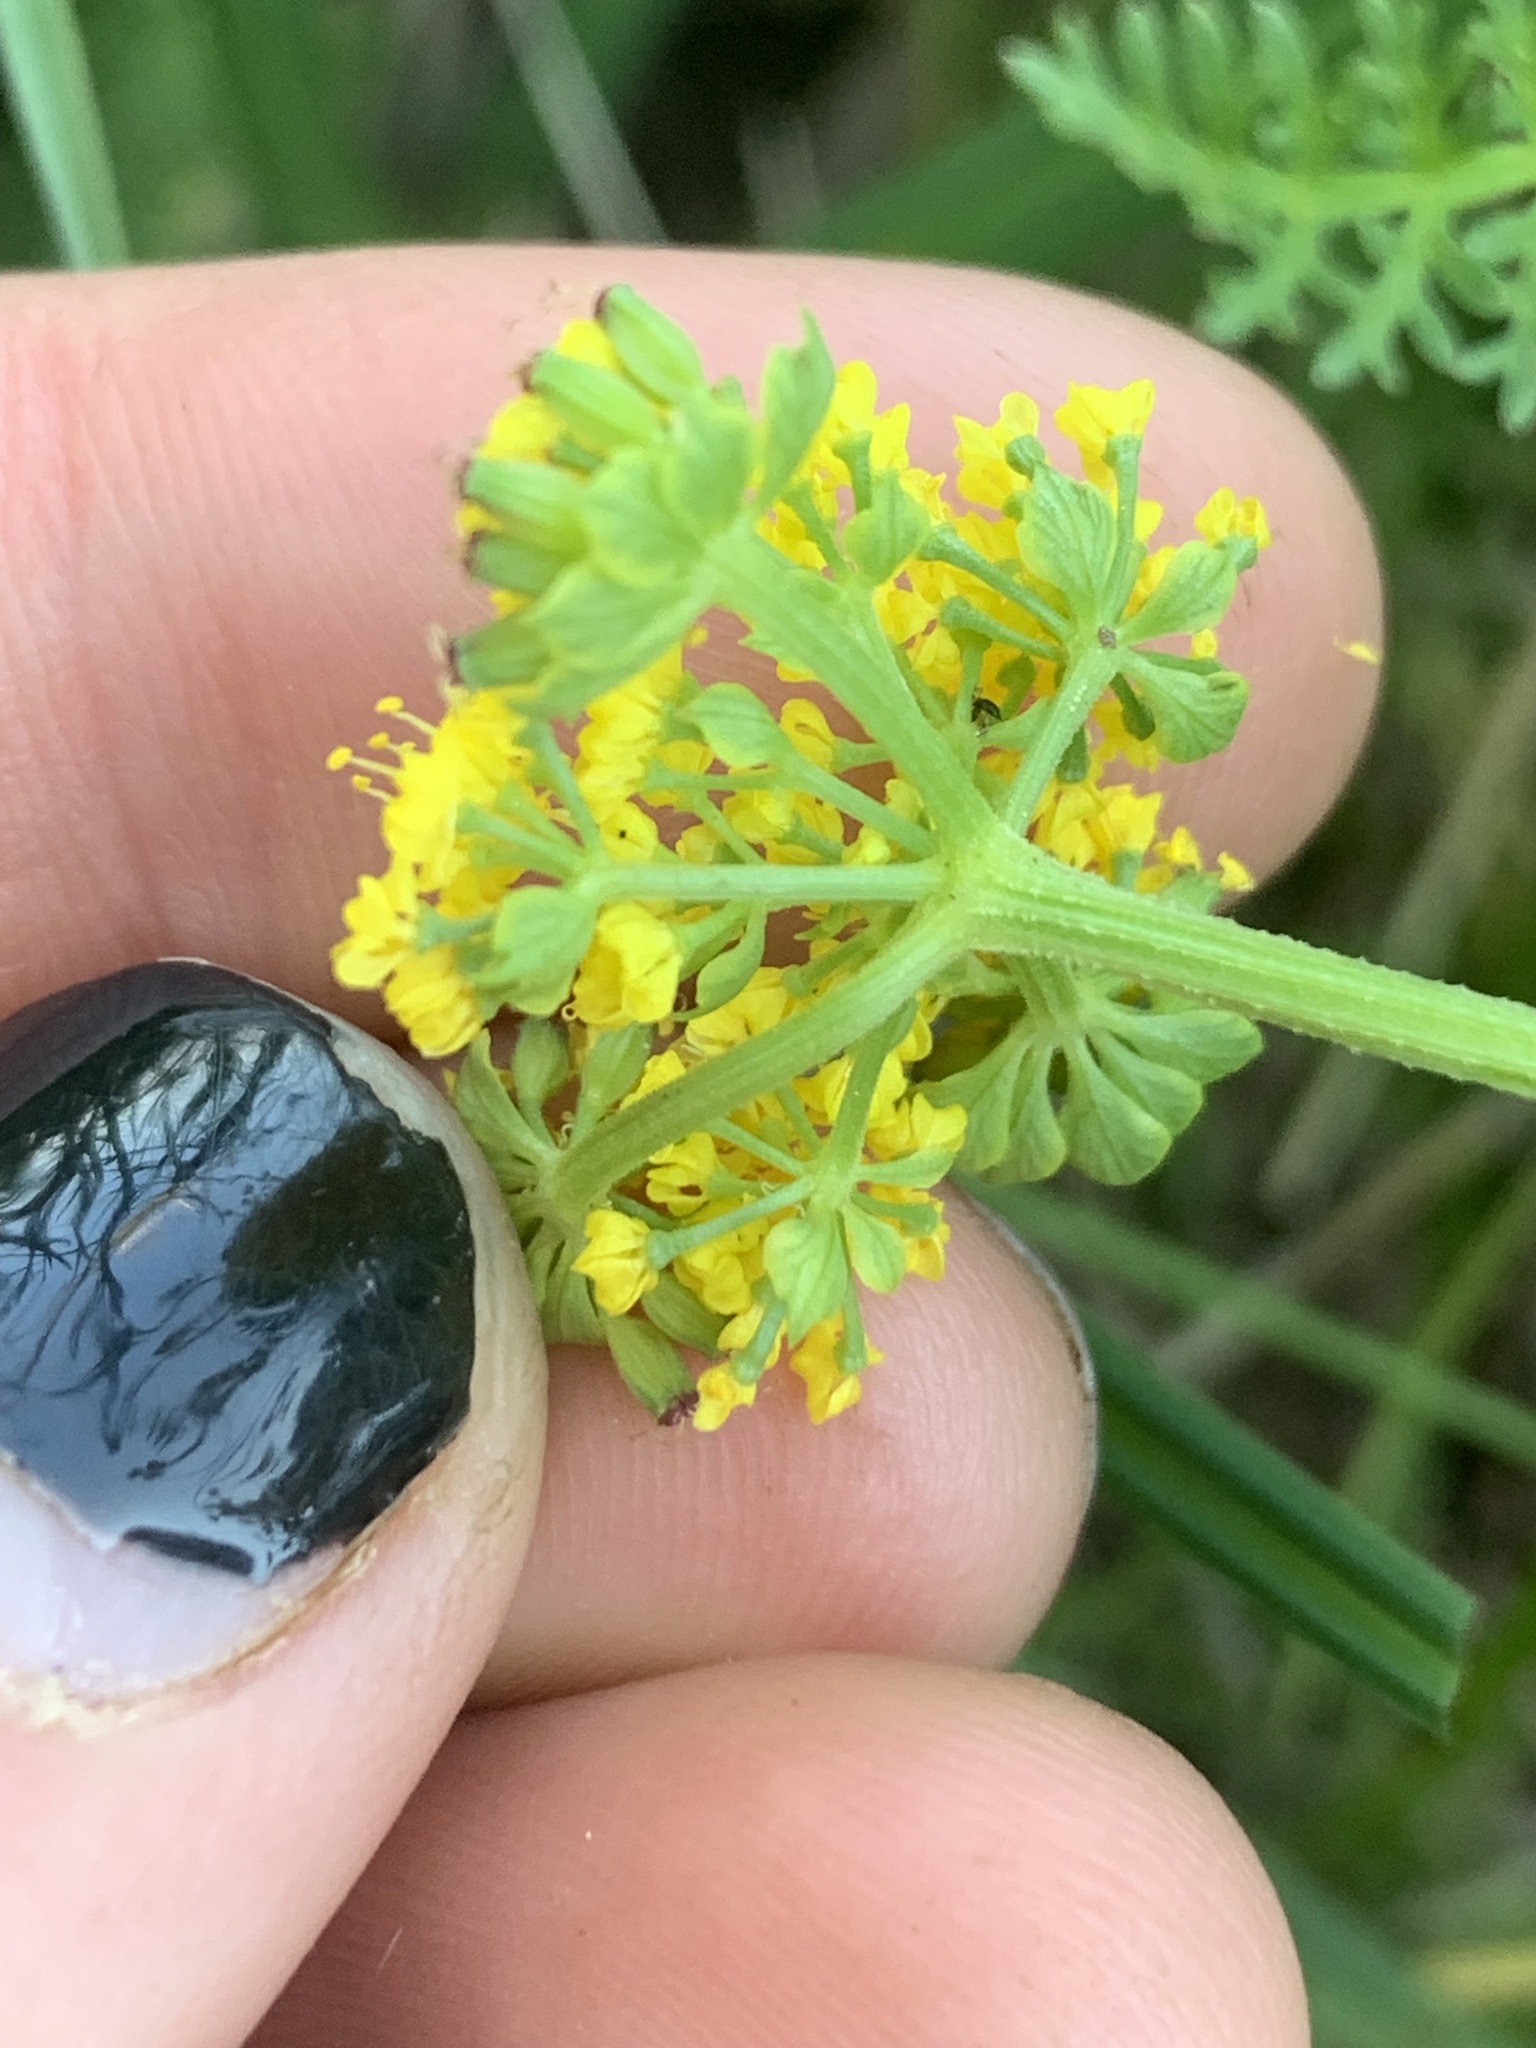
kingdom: Plantae
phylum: Tracheophyta
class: Magnoliopsida
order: Apiales
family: Apiaceae
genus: Lomatium
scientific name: Lomatium utriculatum
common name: Fine-leaf desert-parsley
